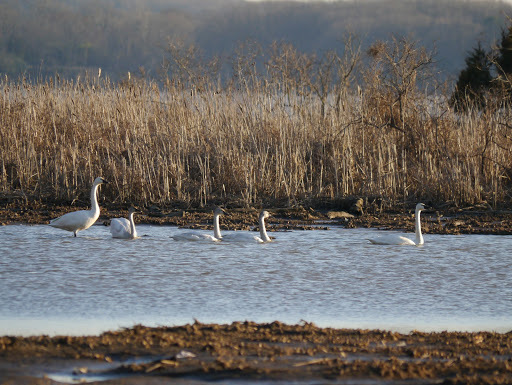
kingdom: Animalia
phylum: Chordata
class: Aves
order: Anseriformes
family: Anatidae
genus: Cygnus
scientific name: Cygnus columbianus
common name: Tundra swan
